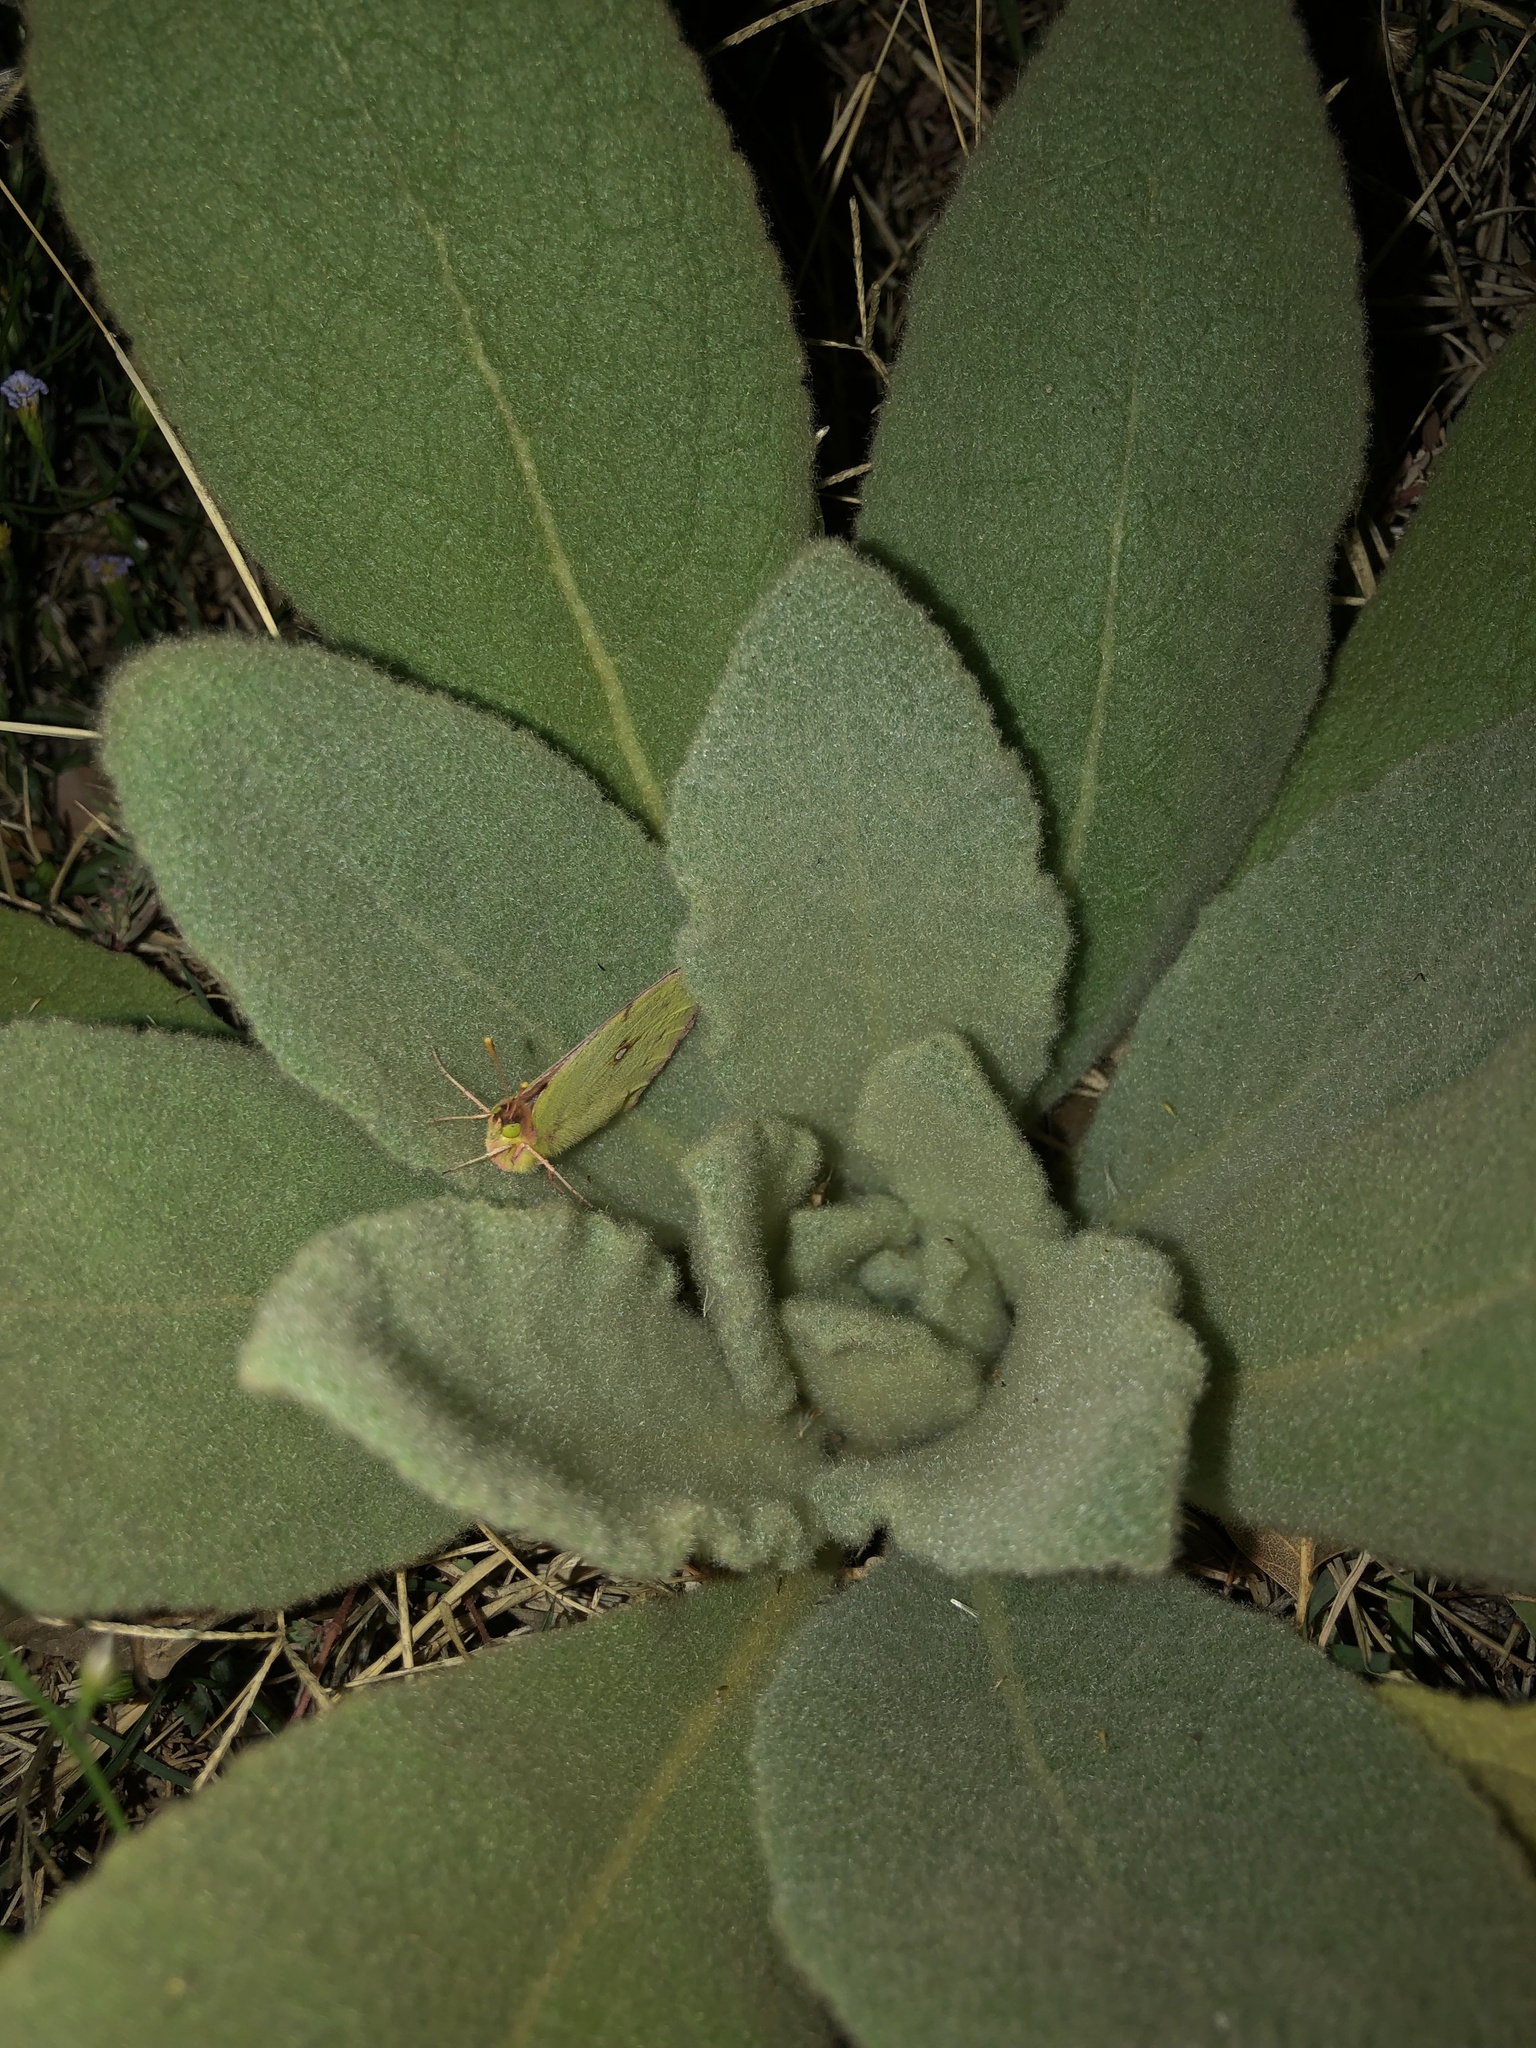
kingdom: Plantae
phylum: Tracheophyta
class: Magnoliopsida
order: Lamiales
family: Scrophulariaceae
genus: Verbascum
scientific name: Verbascum thapsus
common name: Common mullein
